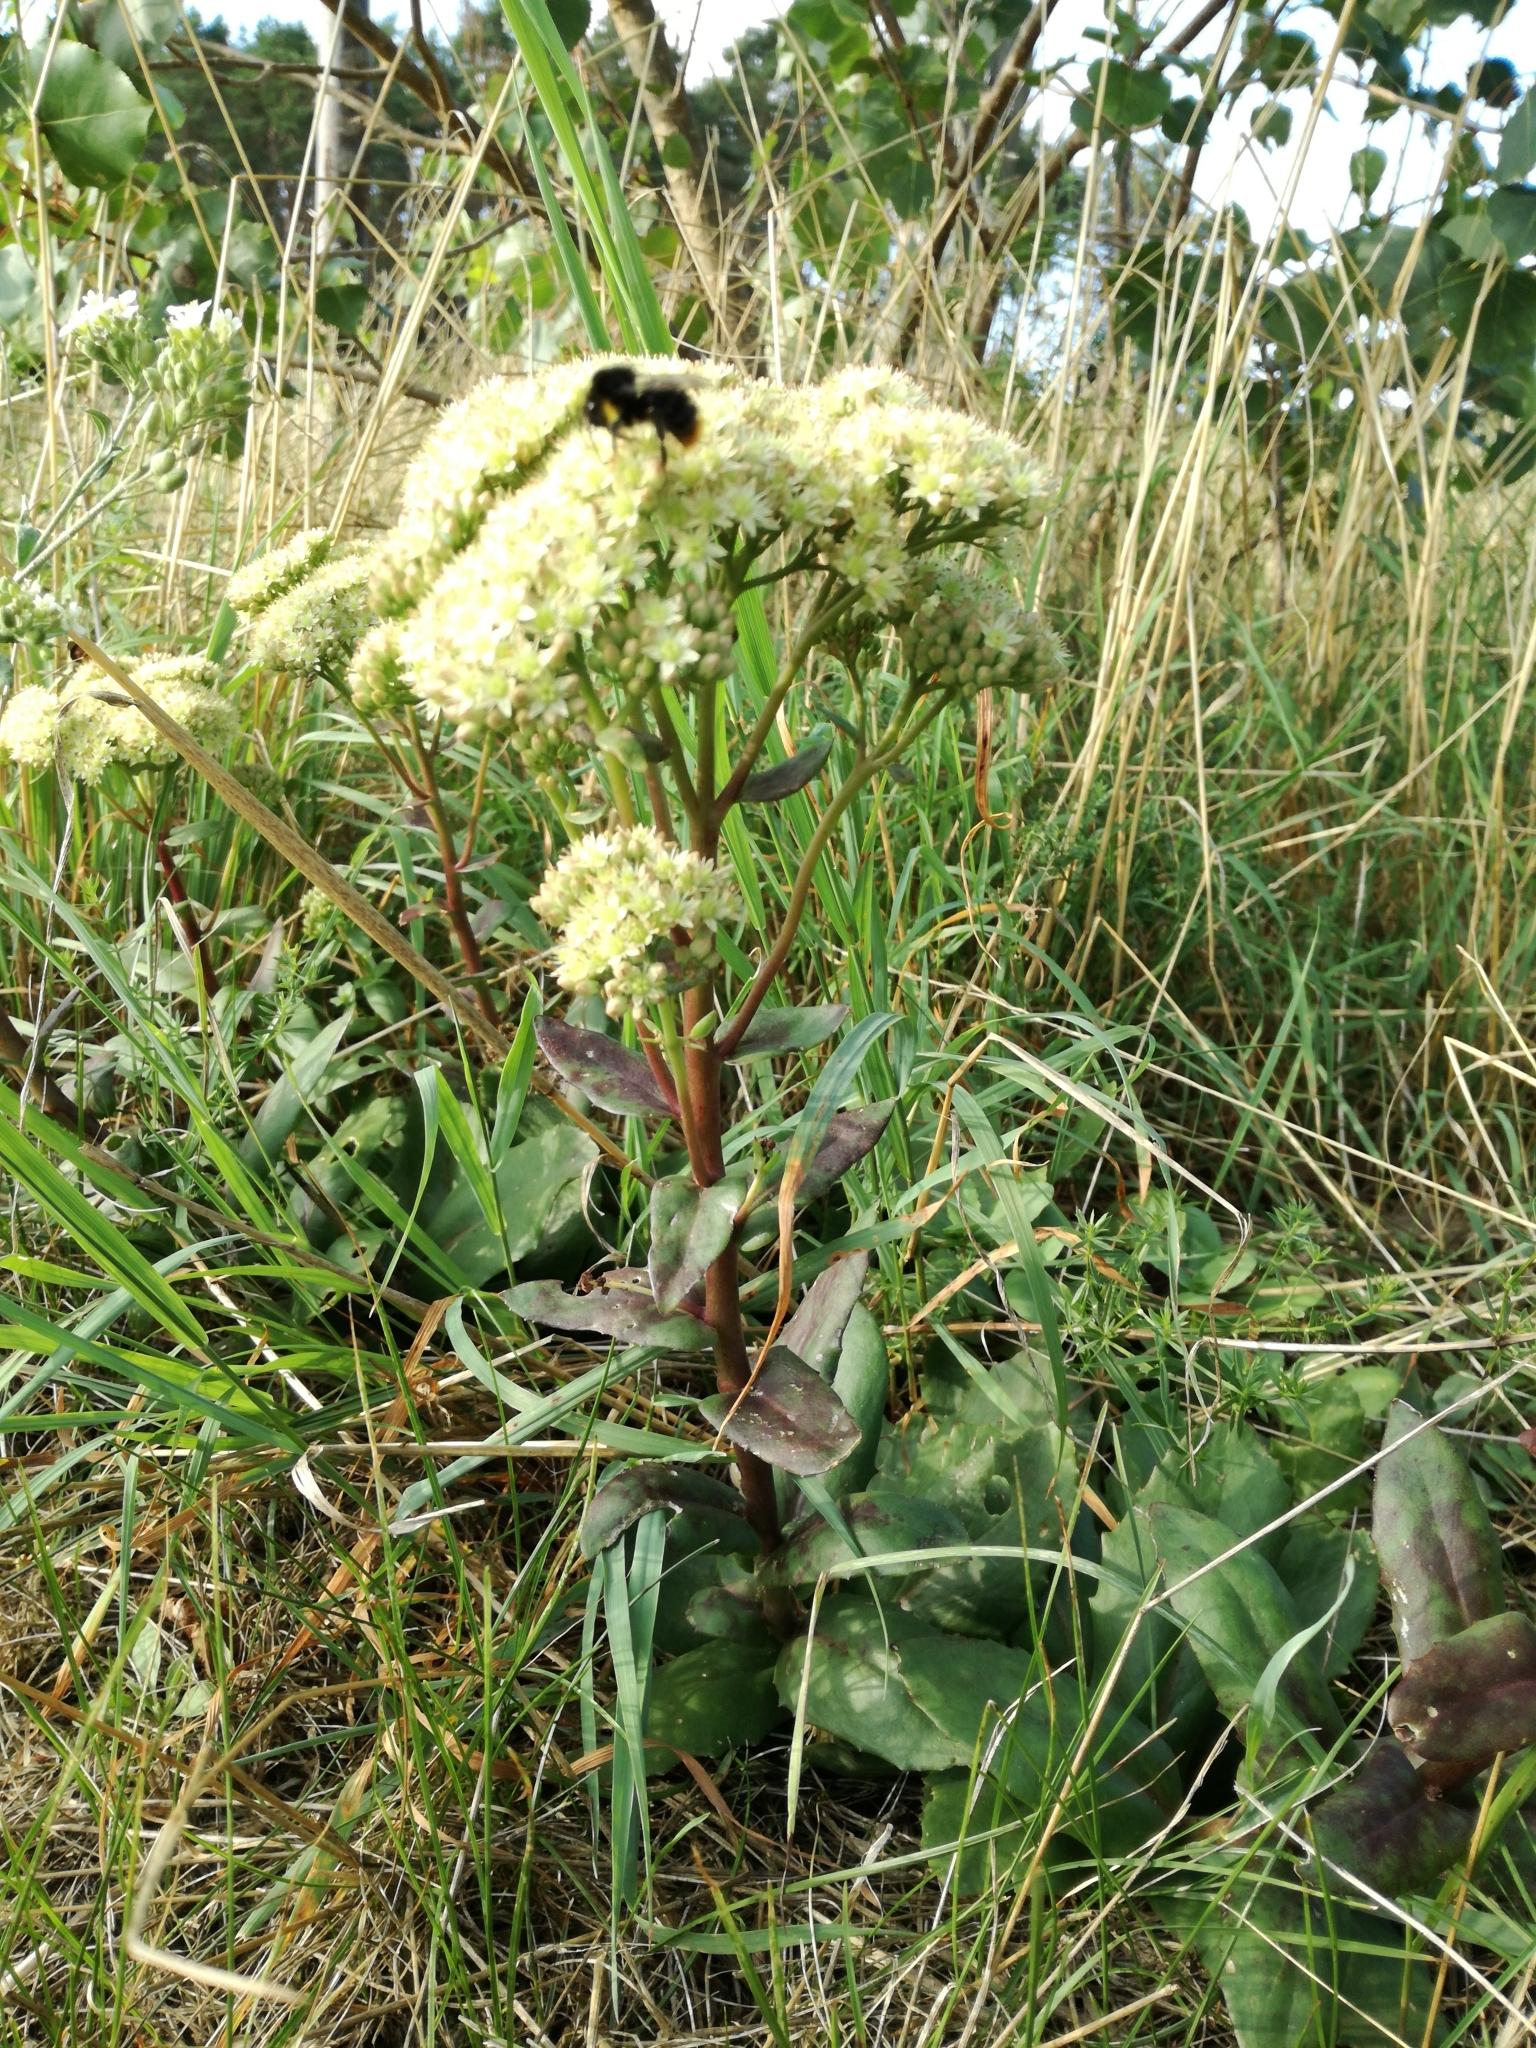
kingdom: Plantae
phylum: Tracheophyta
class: Magnoliopsida
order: Saxifragales
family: Crassulaceae
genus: Hylotelephium
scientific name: Hylotelephium maximum
